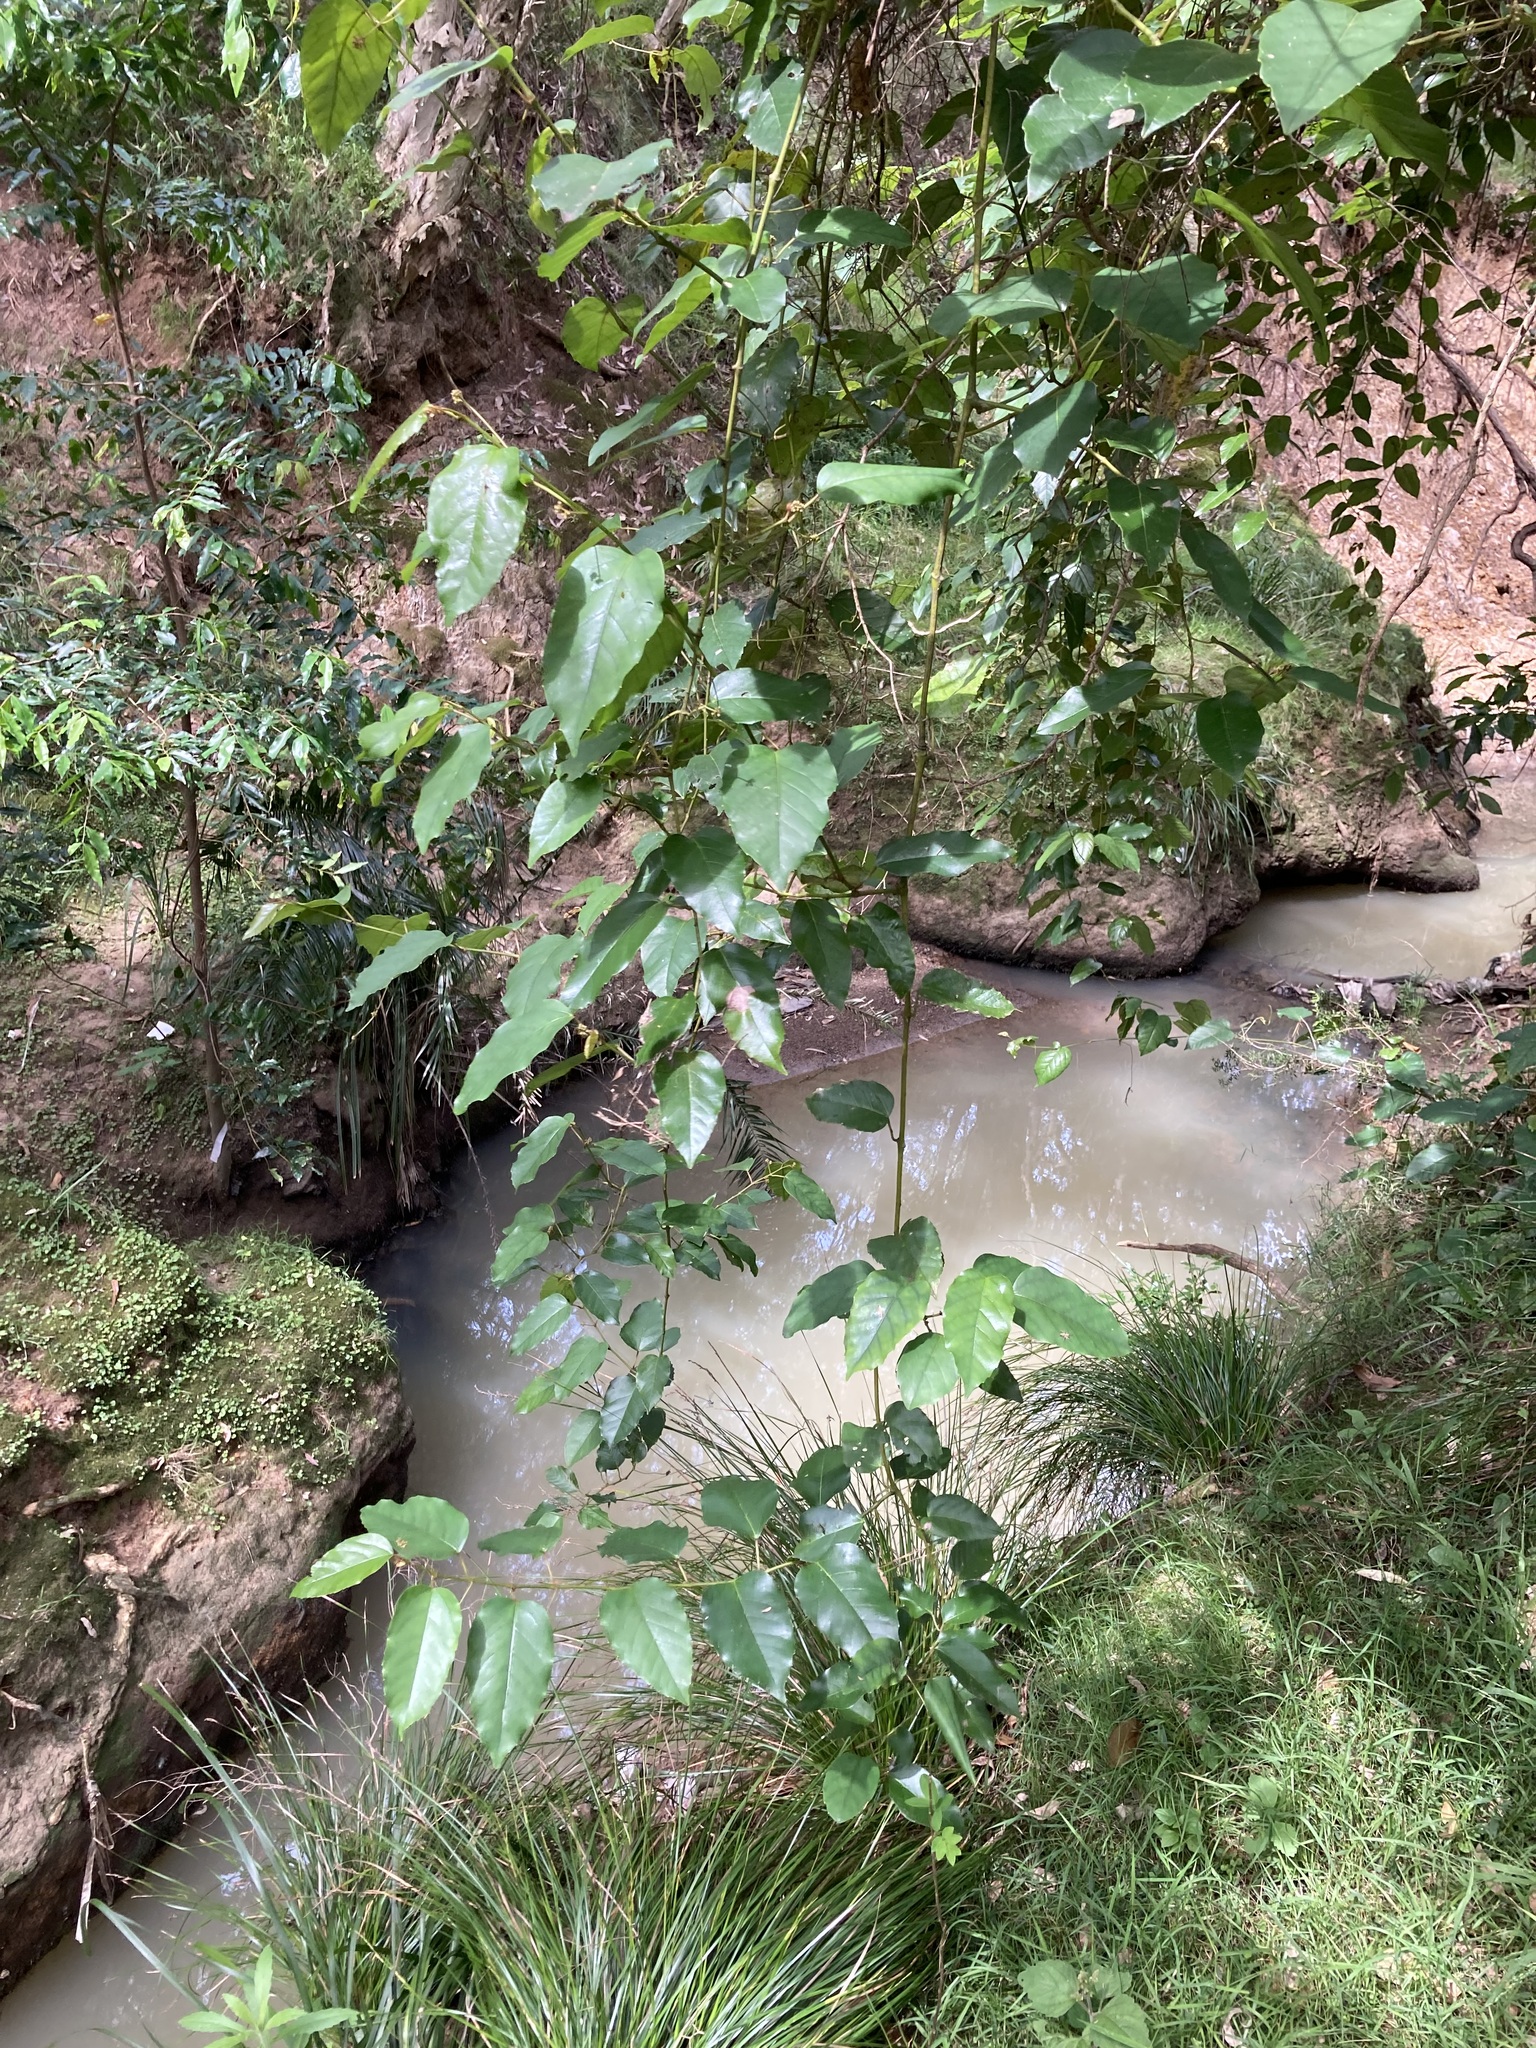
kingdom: Plantae
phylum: Tracheophyta
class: Magnoliopsida
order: Vitales
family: Vitaceae
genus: Cissus
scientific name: Cissus antarctica
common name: Kangaroo vine
